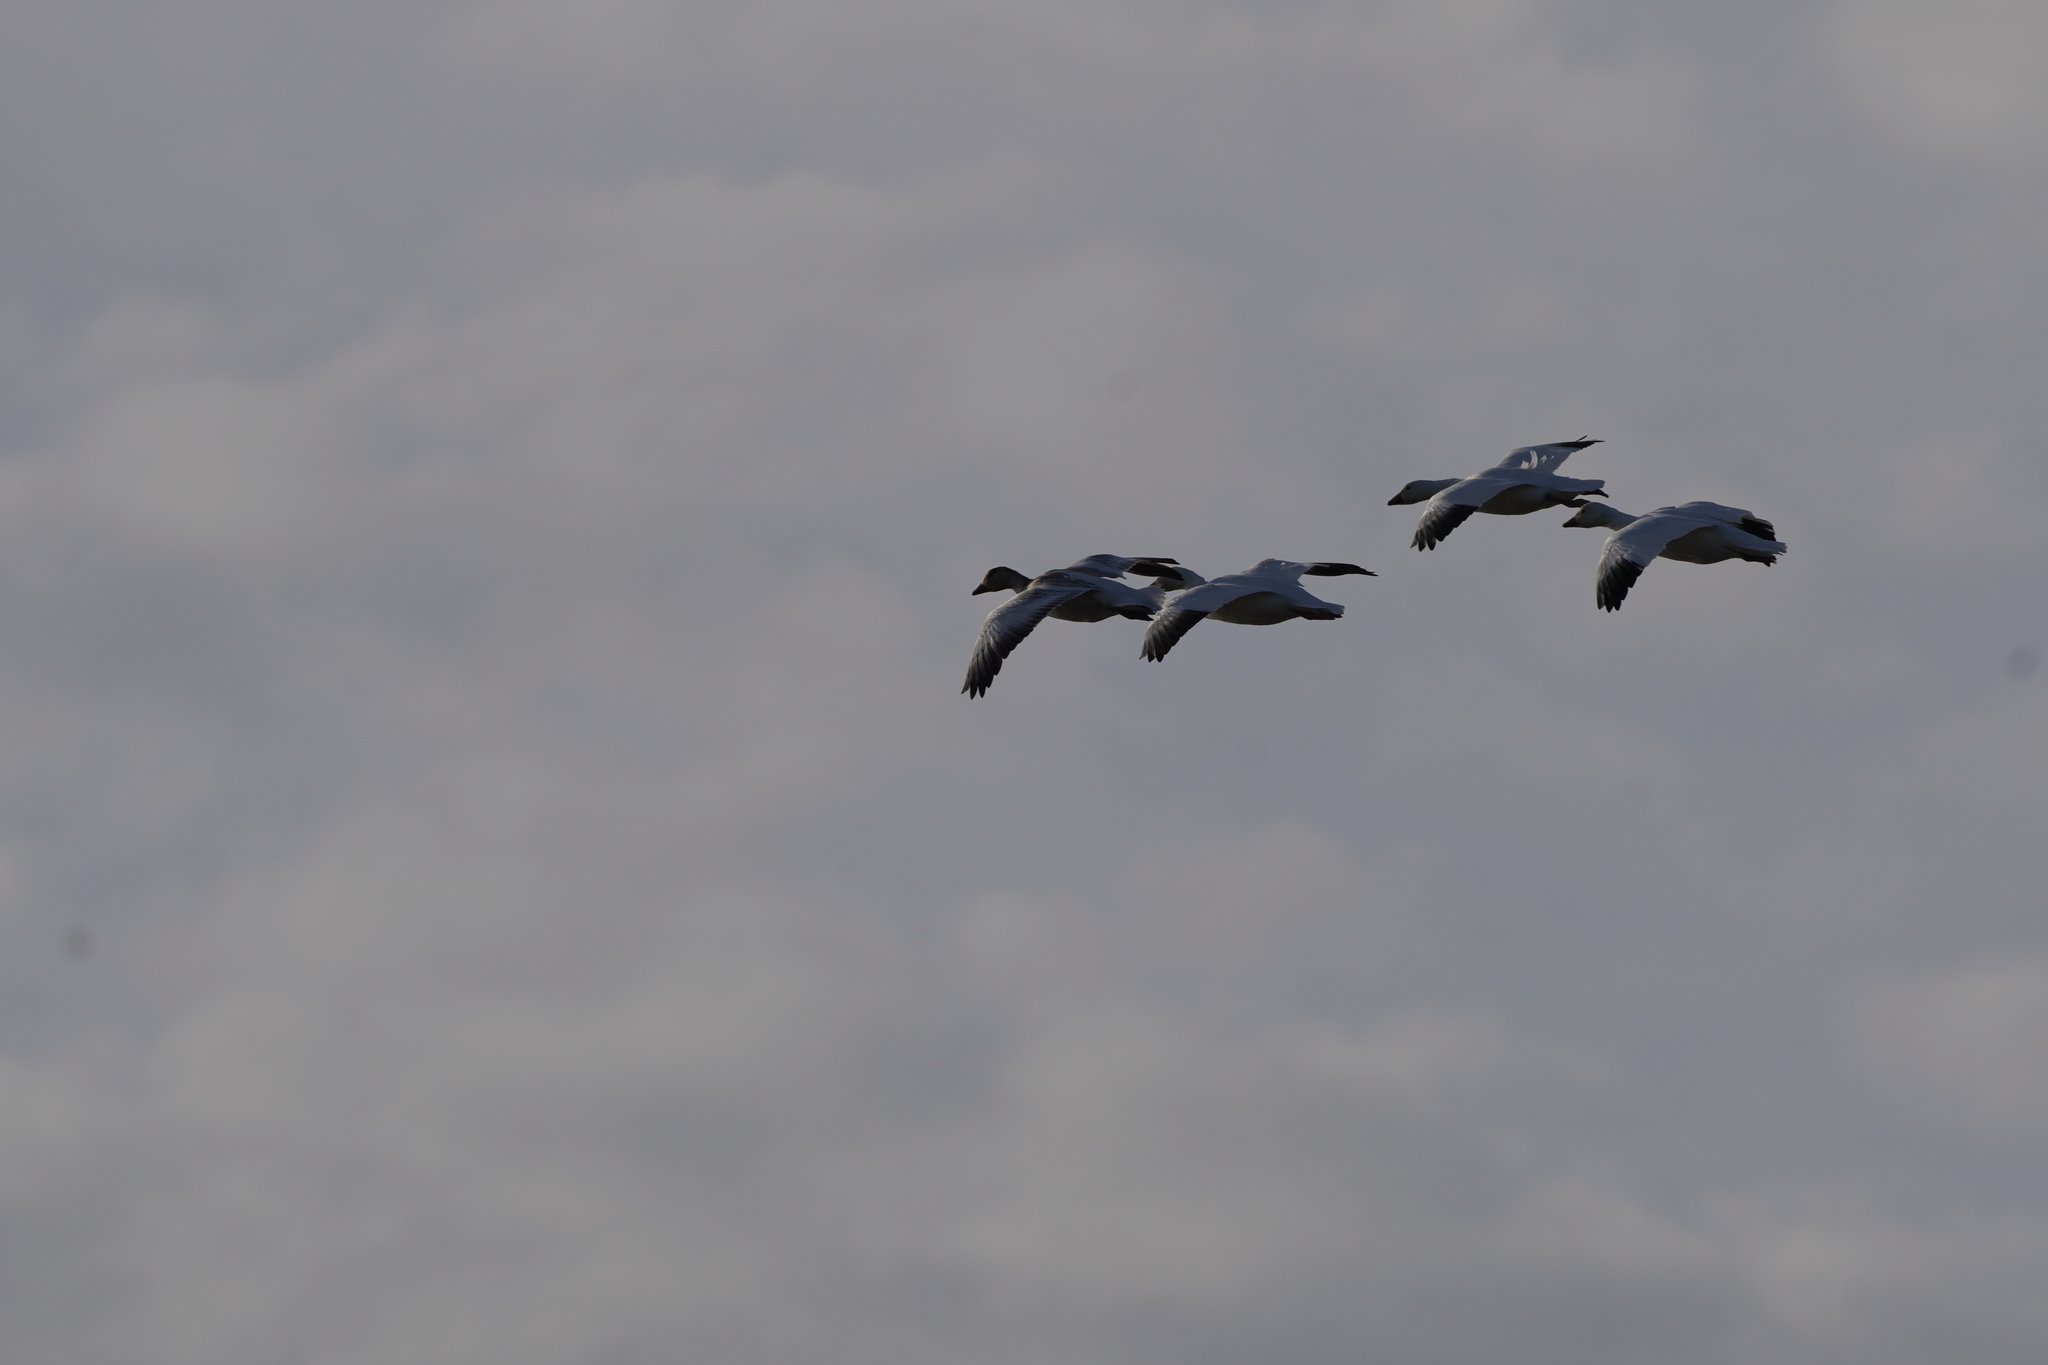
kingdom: Animalia
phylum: Chordata
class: Aves
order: Anseriformes
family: Anatidae
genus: Anser
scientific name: Anser caerulescens
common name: Snow goose
